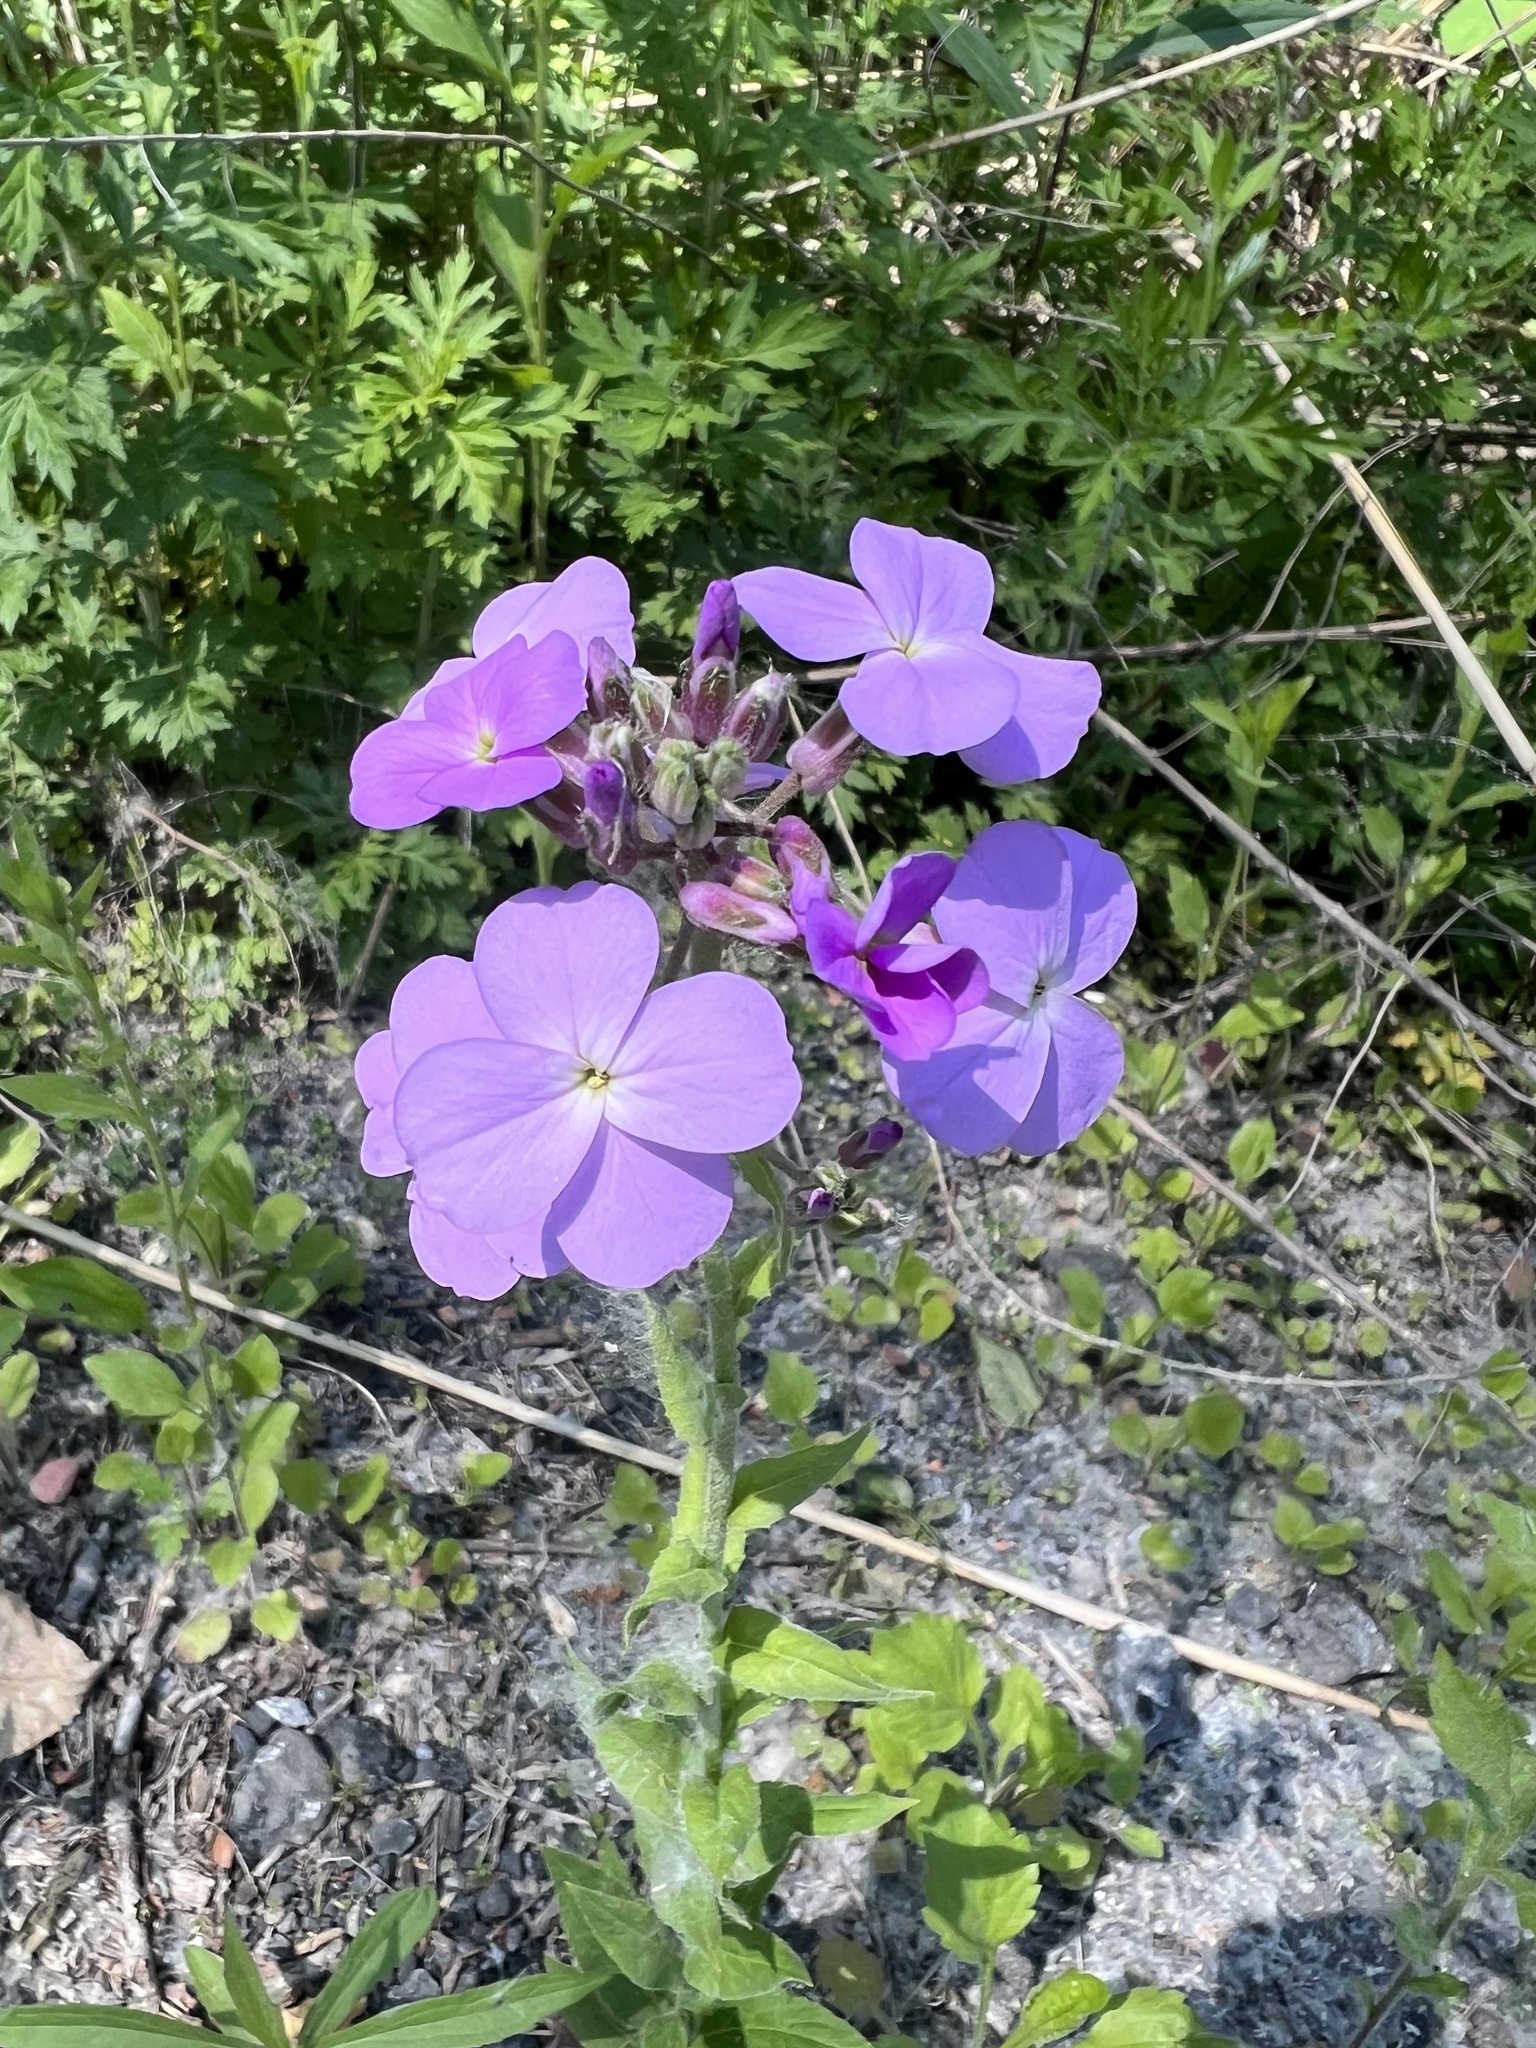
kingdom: Plantae
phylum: Tracheophyta
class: Magnoliopsida
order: Brassicales
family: Brassicaceae
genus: Hesperis
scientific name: Hesperis matronalis
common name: Dame's-violet
